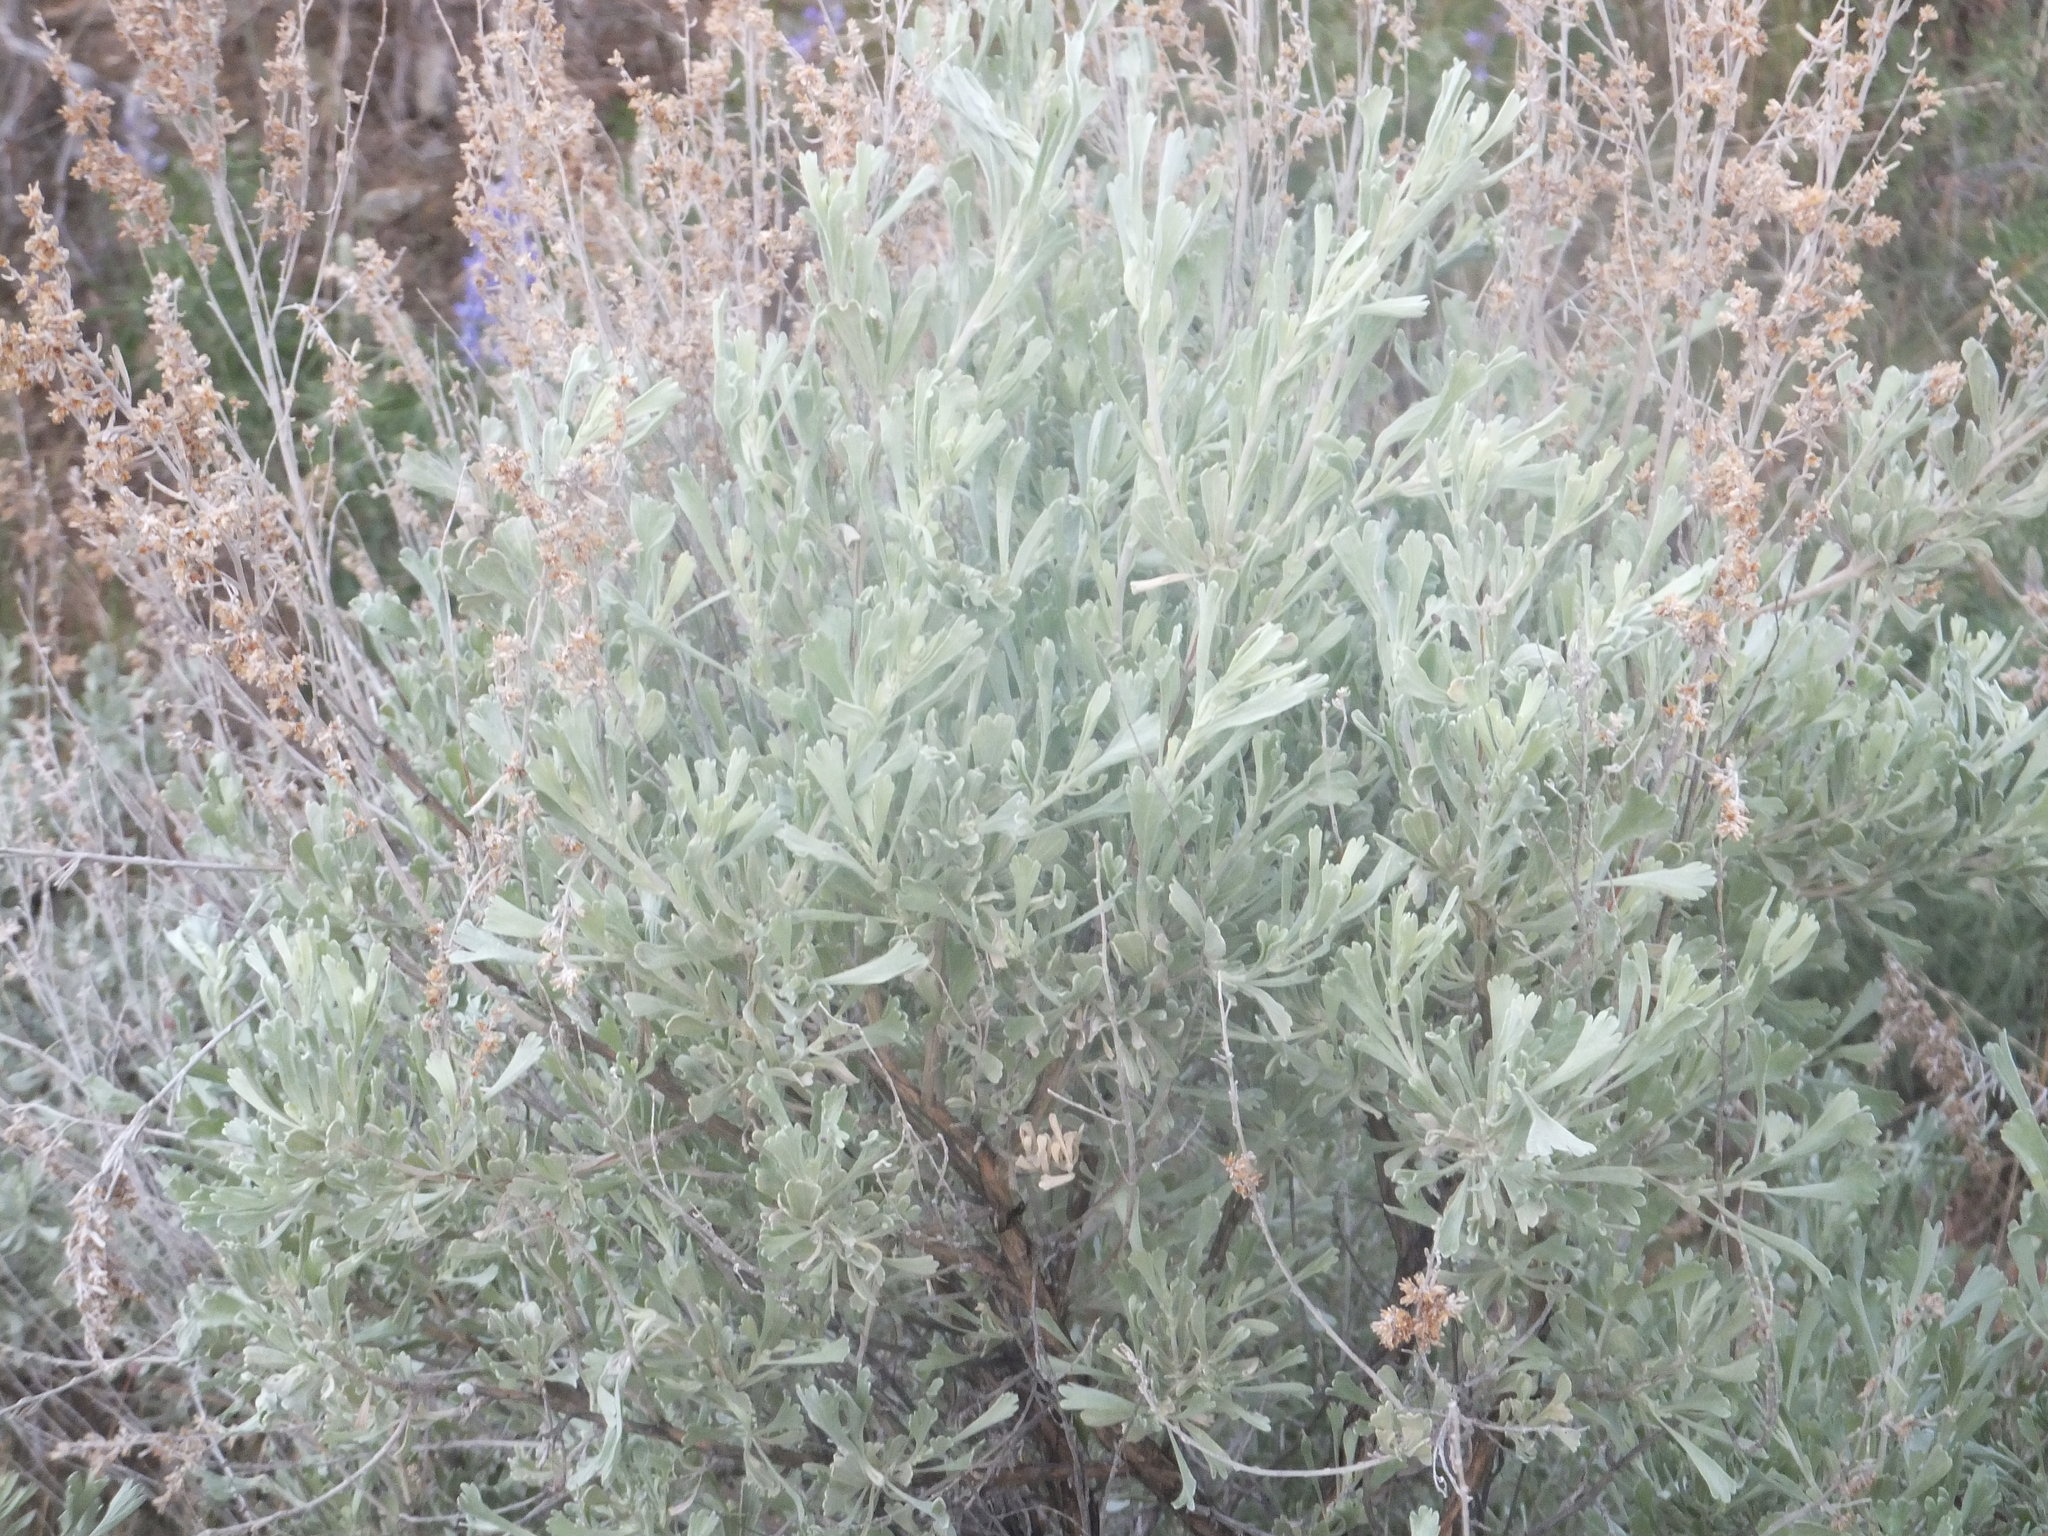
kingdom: Plantae
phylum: Tracheophyta
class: Magnoliopsida
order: Asterales
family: Asteraceae
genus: Artemisia
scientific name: Artemisia tridentata
